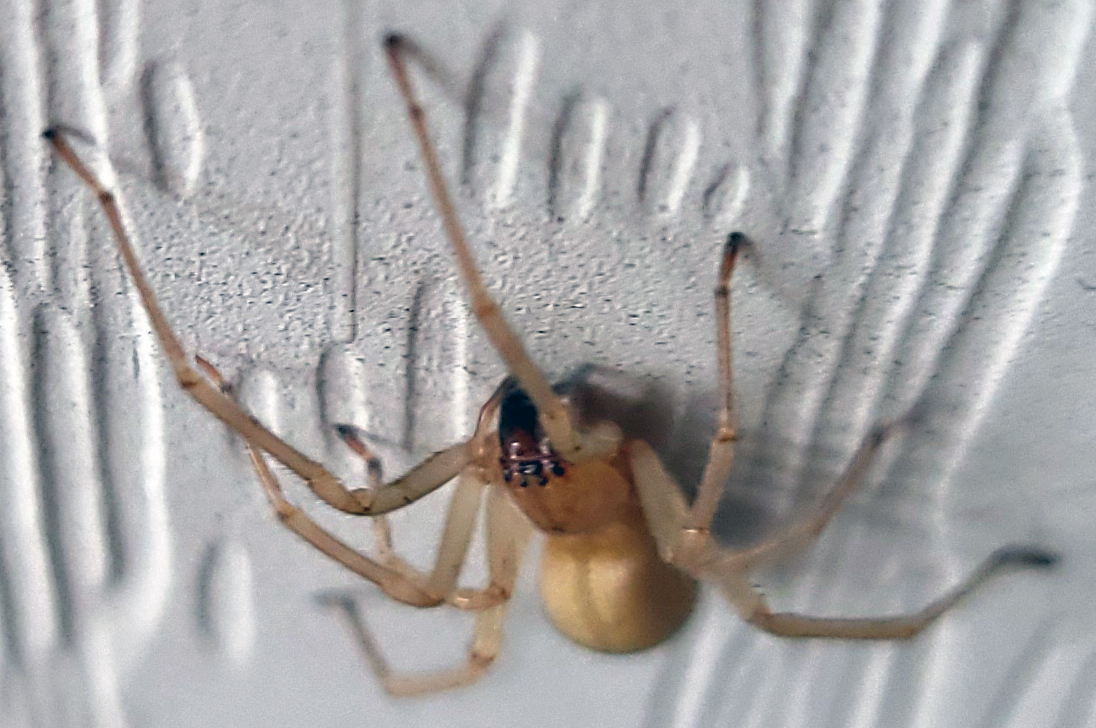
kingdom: Animalia
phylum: Arthropoda
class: Arachnida
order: Araneae
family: Cheiracanthiidae
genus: Cheiracanthium
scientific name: Cheiracanthium
